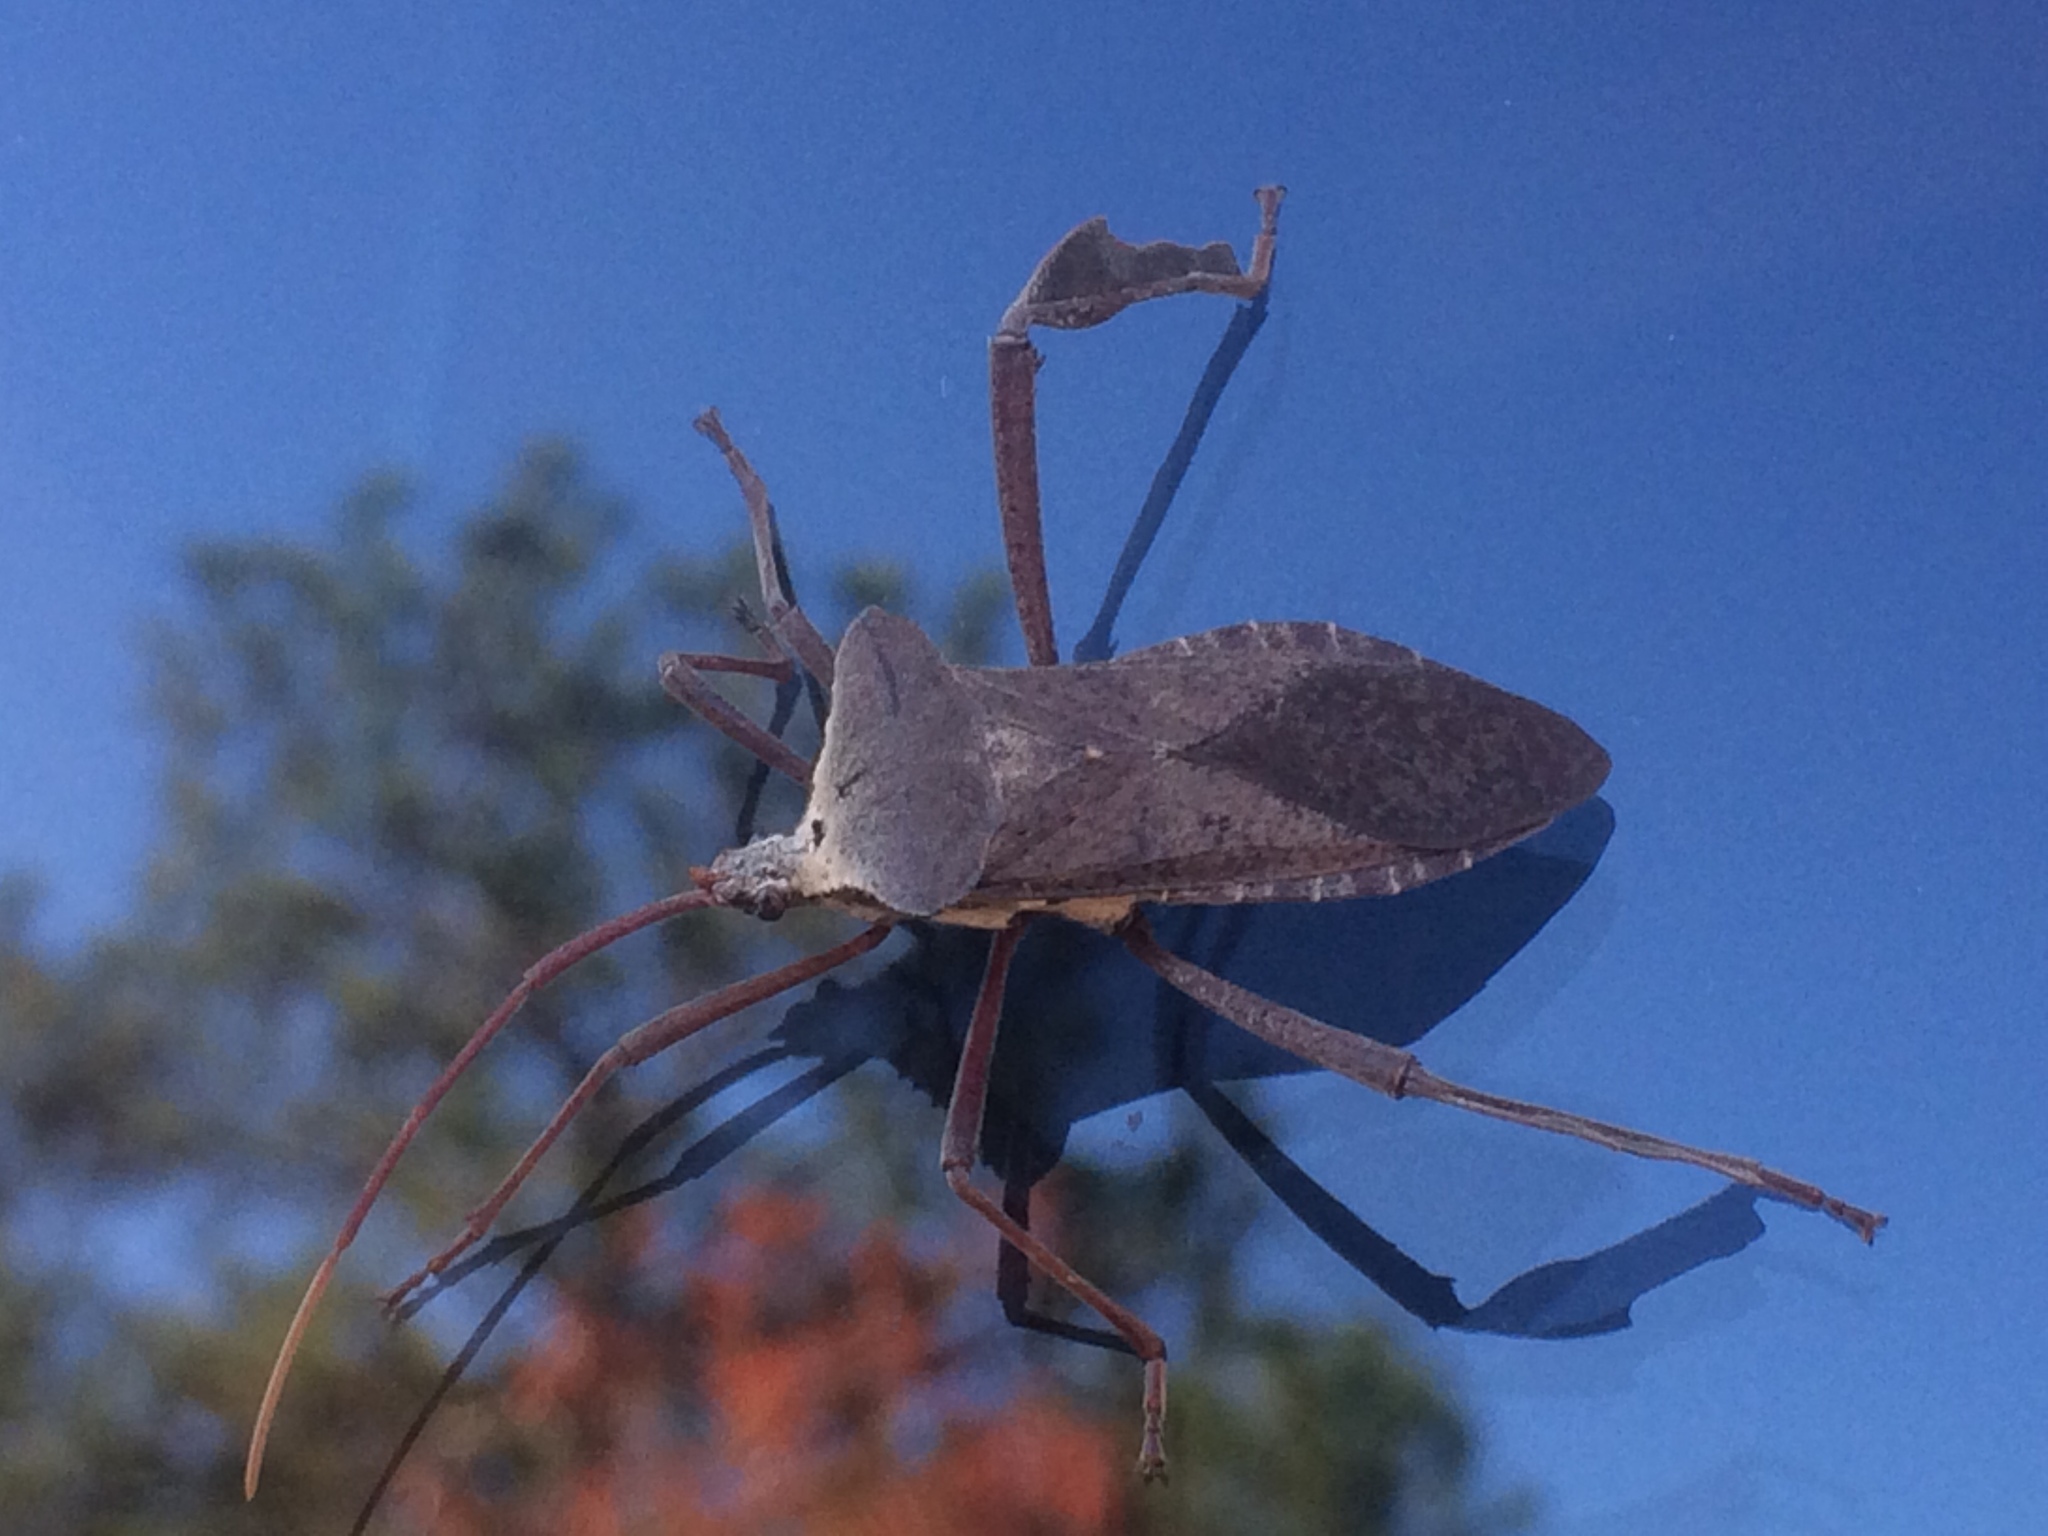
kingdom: Animalia
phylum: Arthropoda
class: Insecta
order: Hemiptera
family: Coreidae
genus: Acanthocephala
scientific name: Acanthocephala declivis
